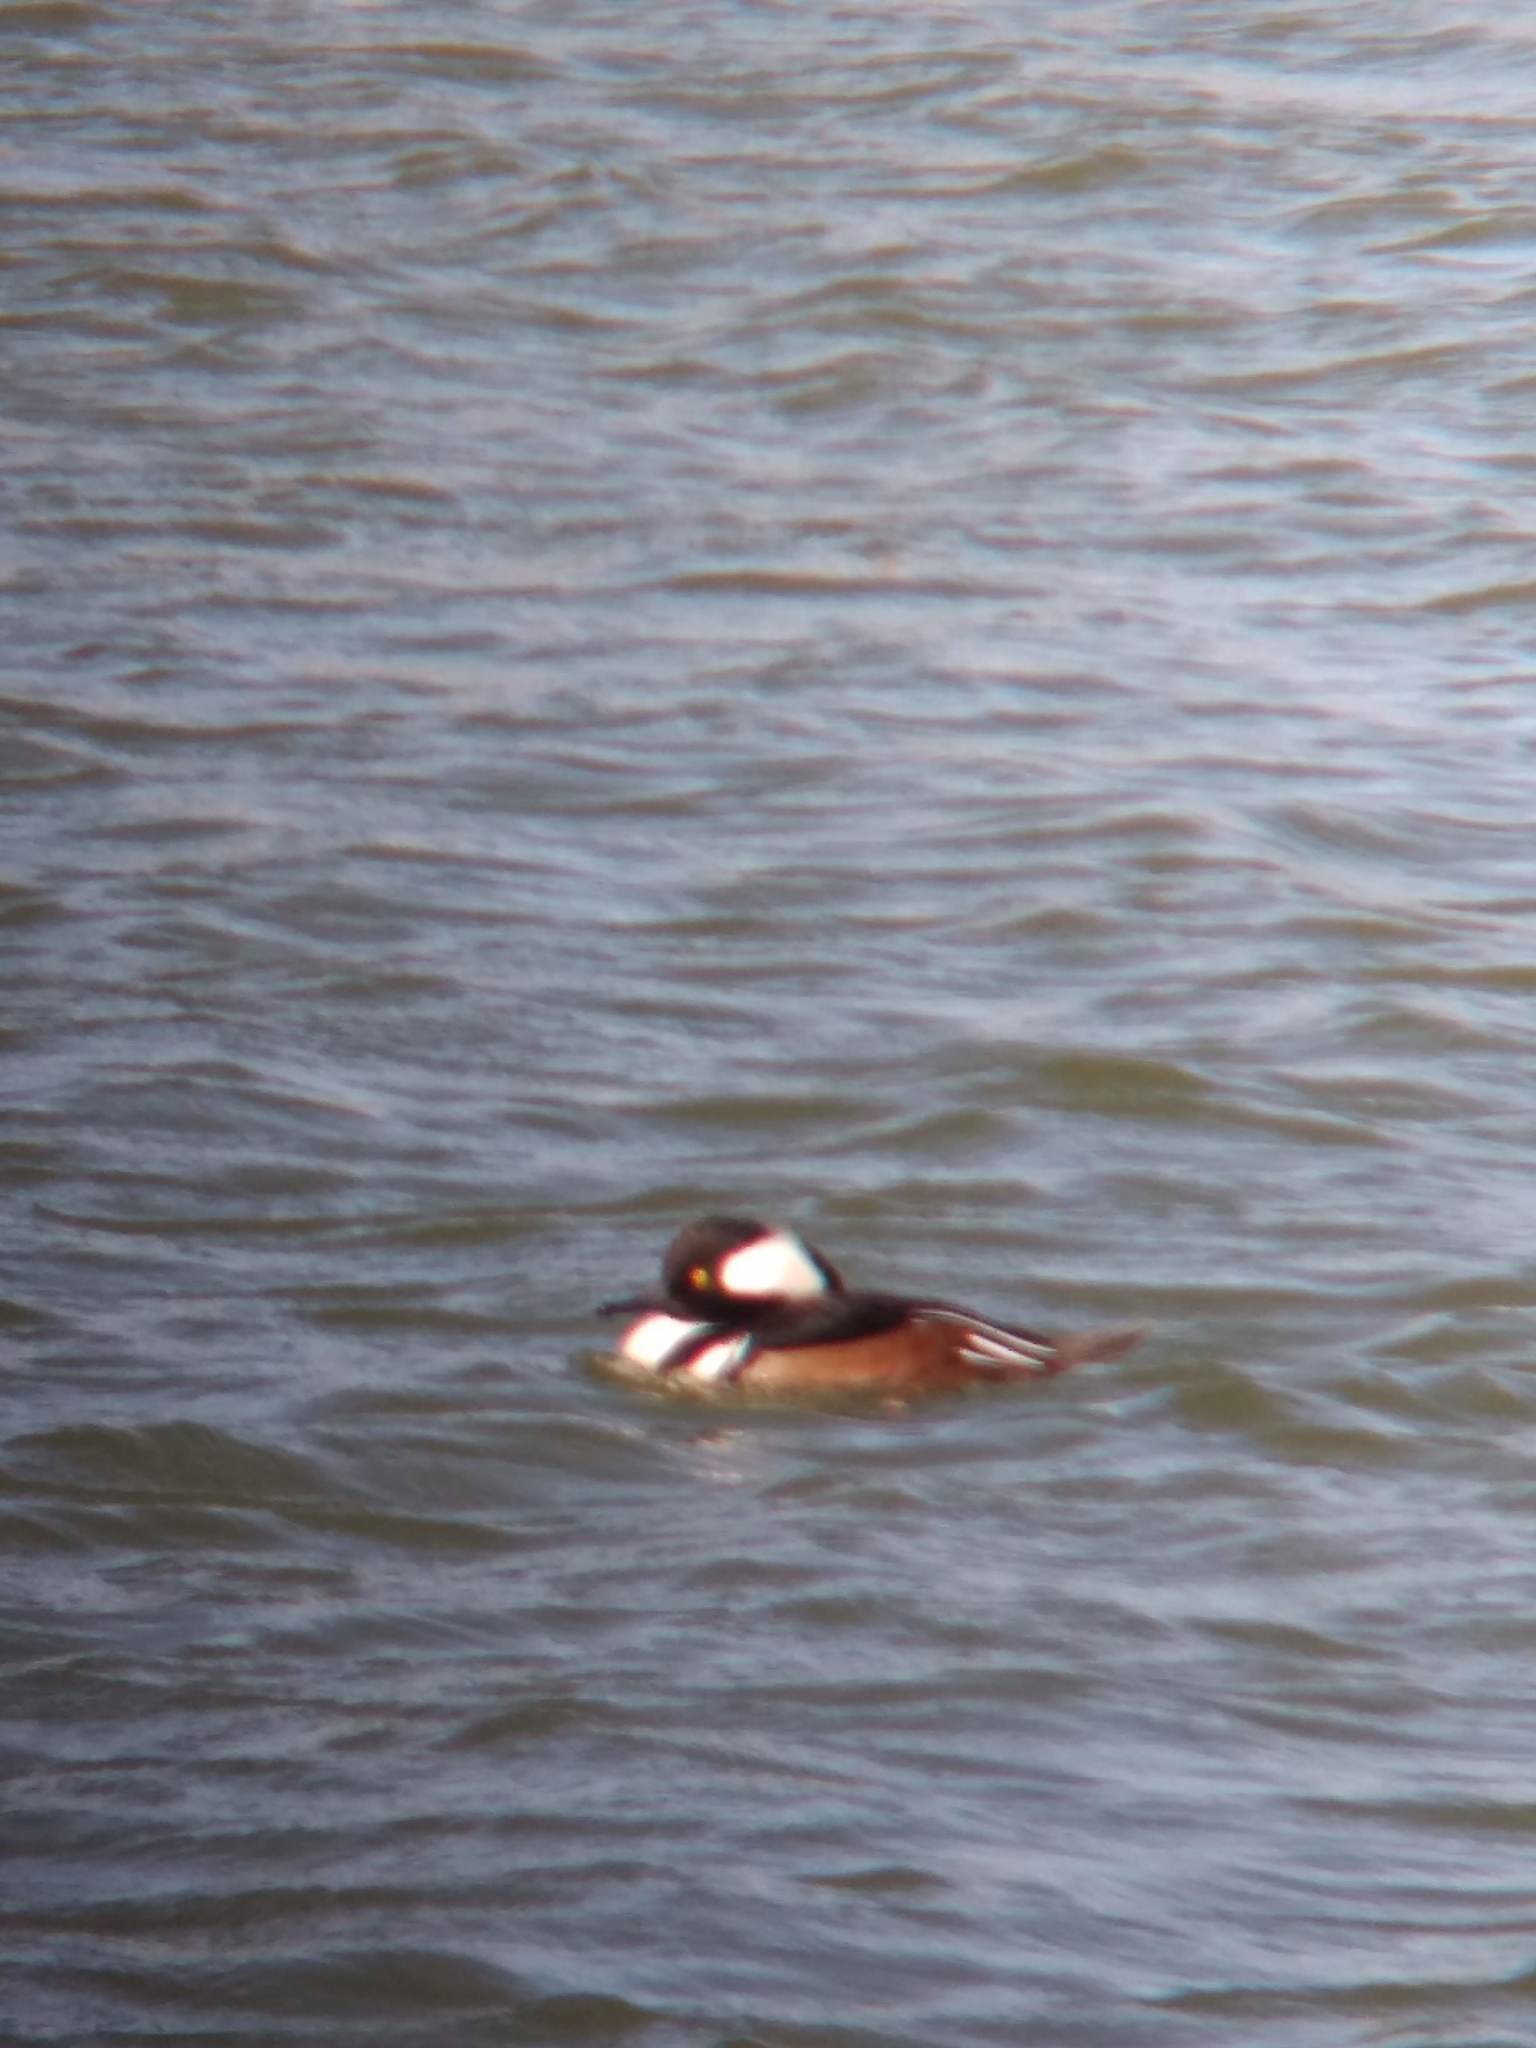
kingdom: Animalia
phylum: Chordata
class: Aves
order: Anseriformes
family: Anatidae
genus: Lophodytes
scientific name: Lophodytes cucullatus
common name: Hooded merganser
